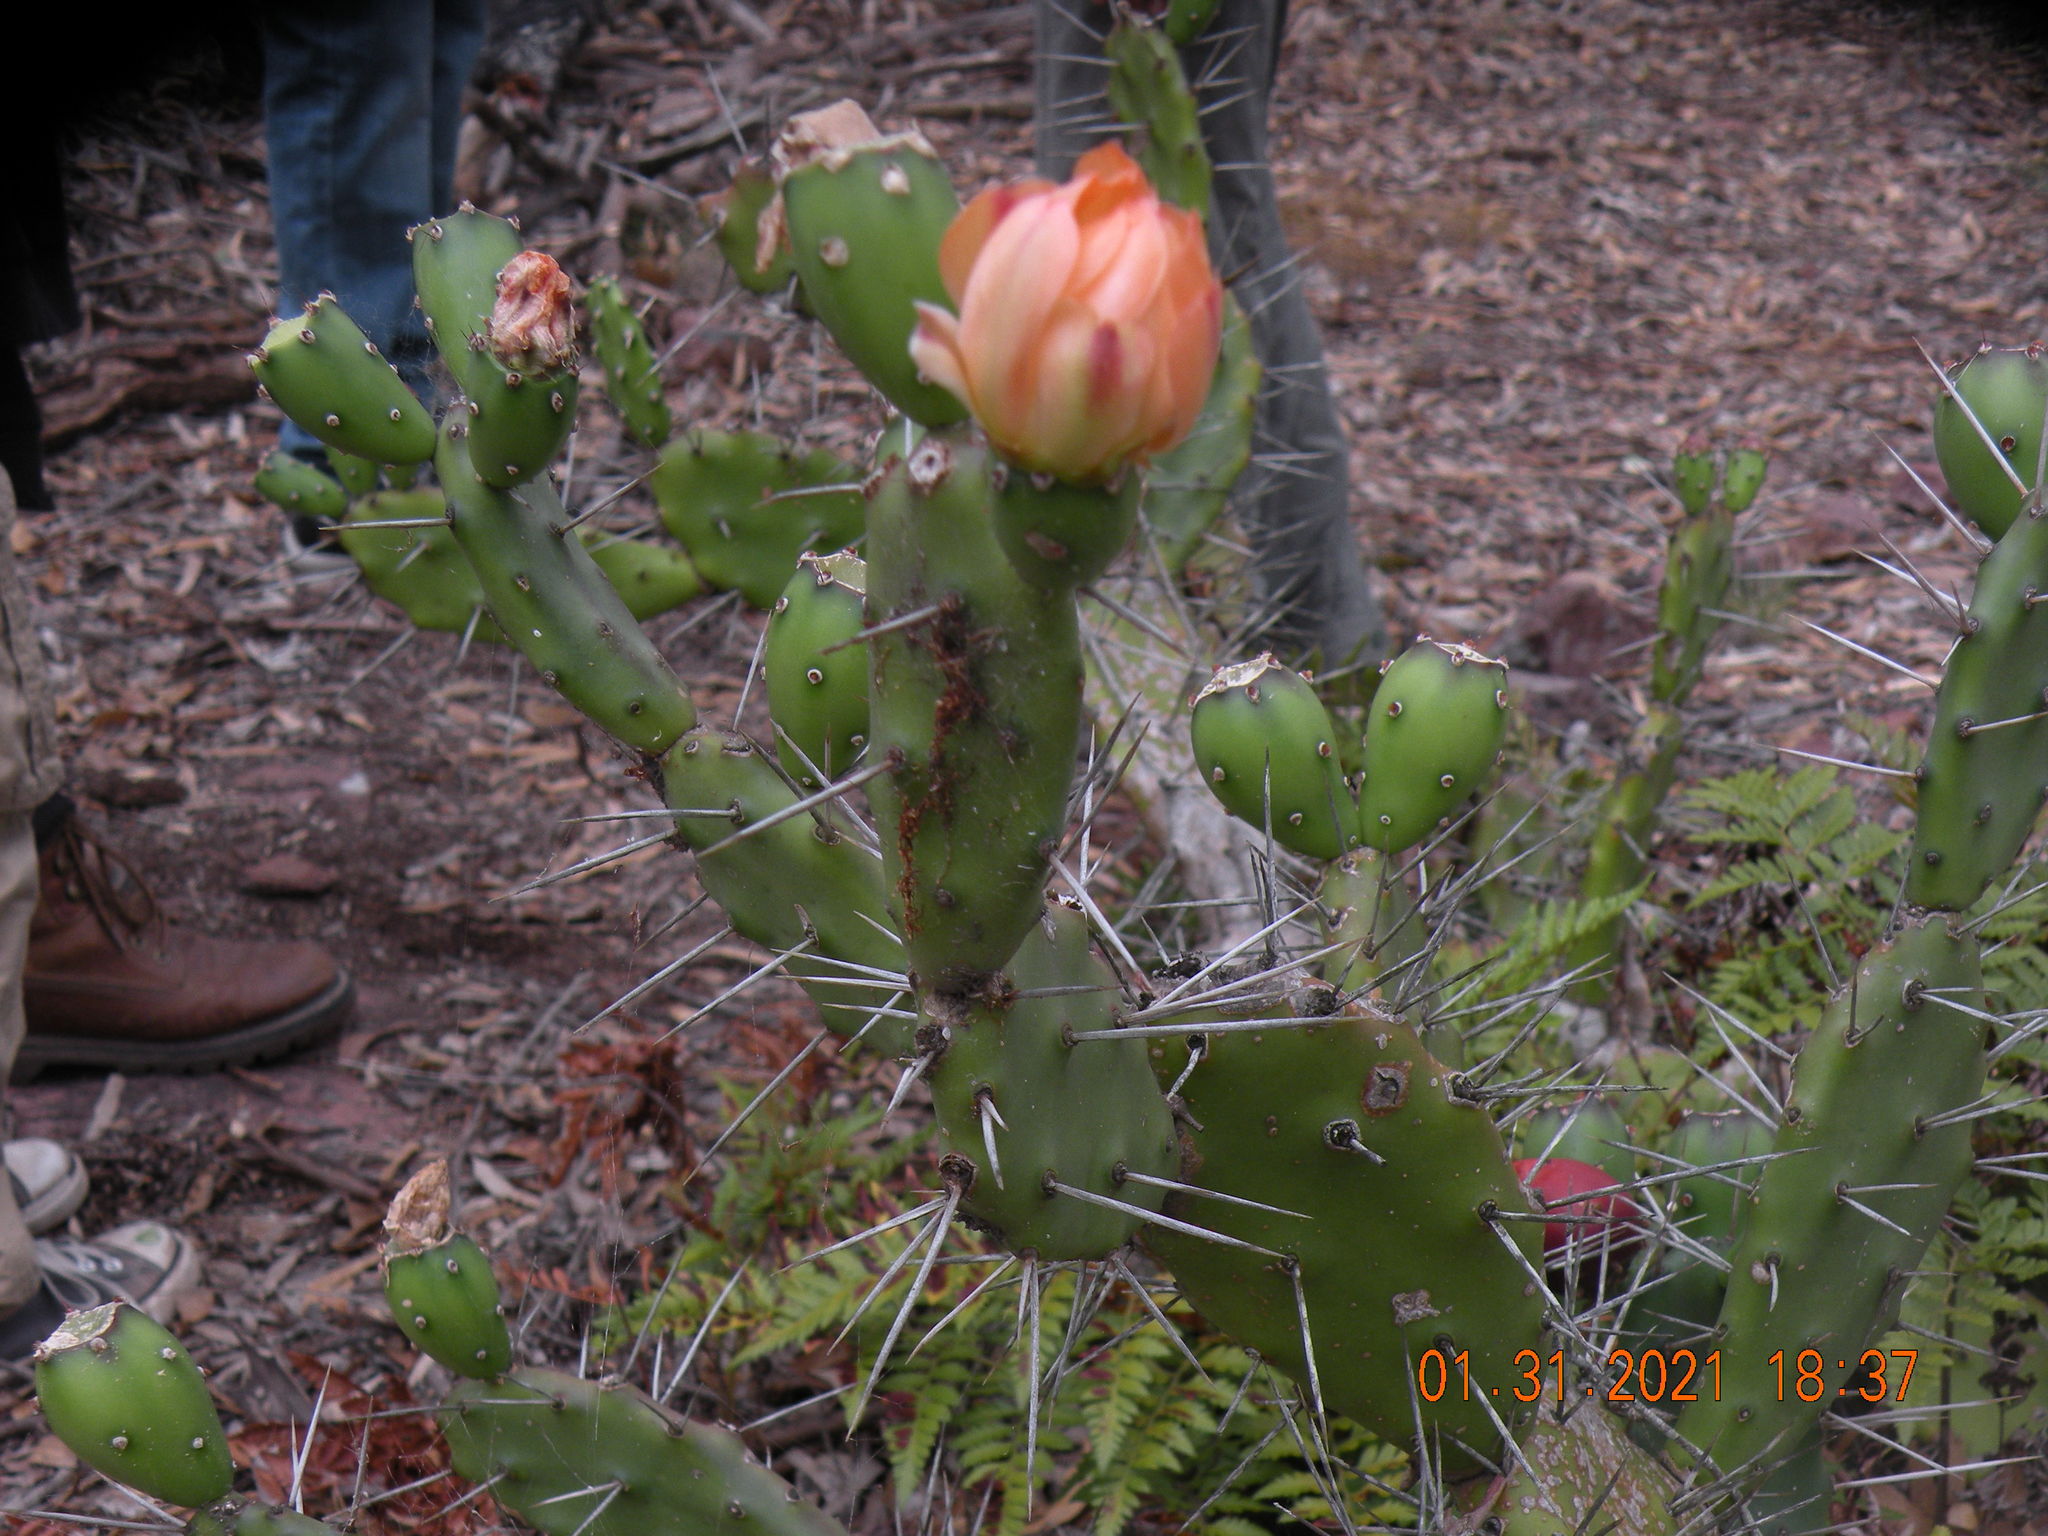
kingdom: Plantae
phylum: Tracheophyta
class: Magnoliopsida
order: Caryophyllales
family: Cactaceae
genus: Opuntia
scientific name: Opuntia elata
